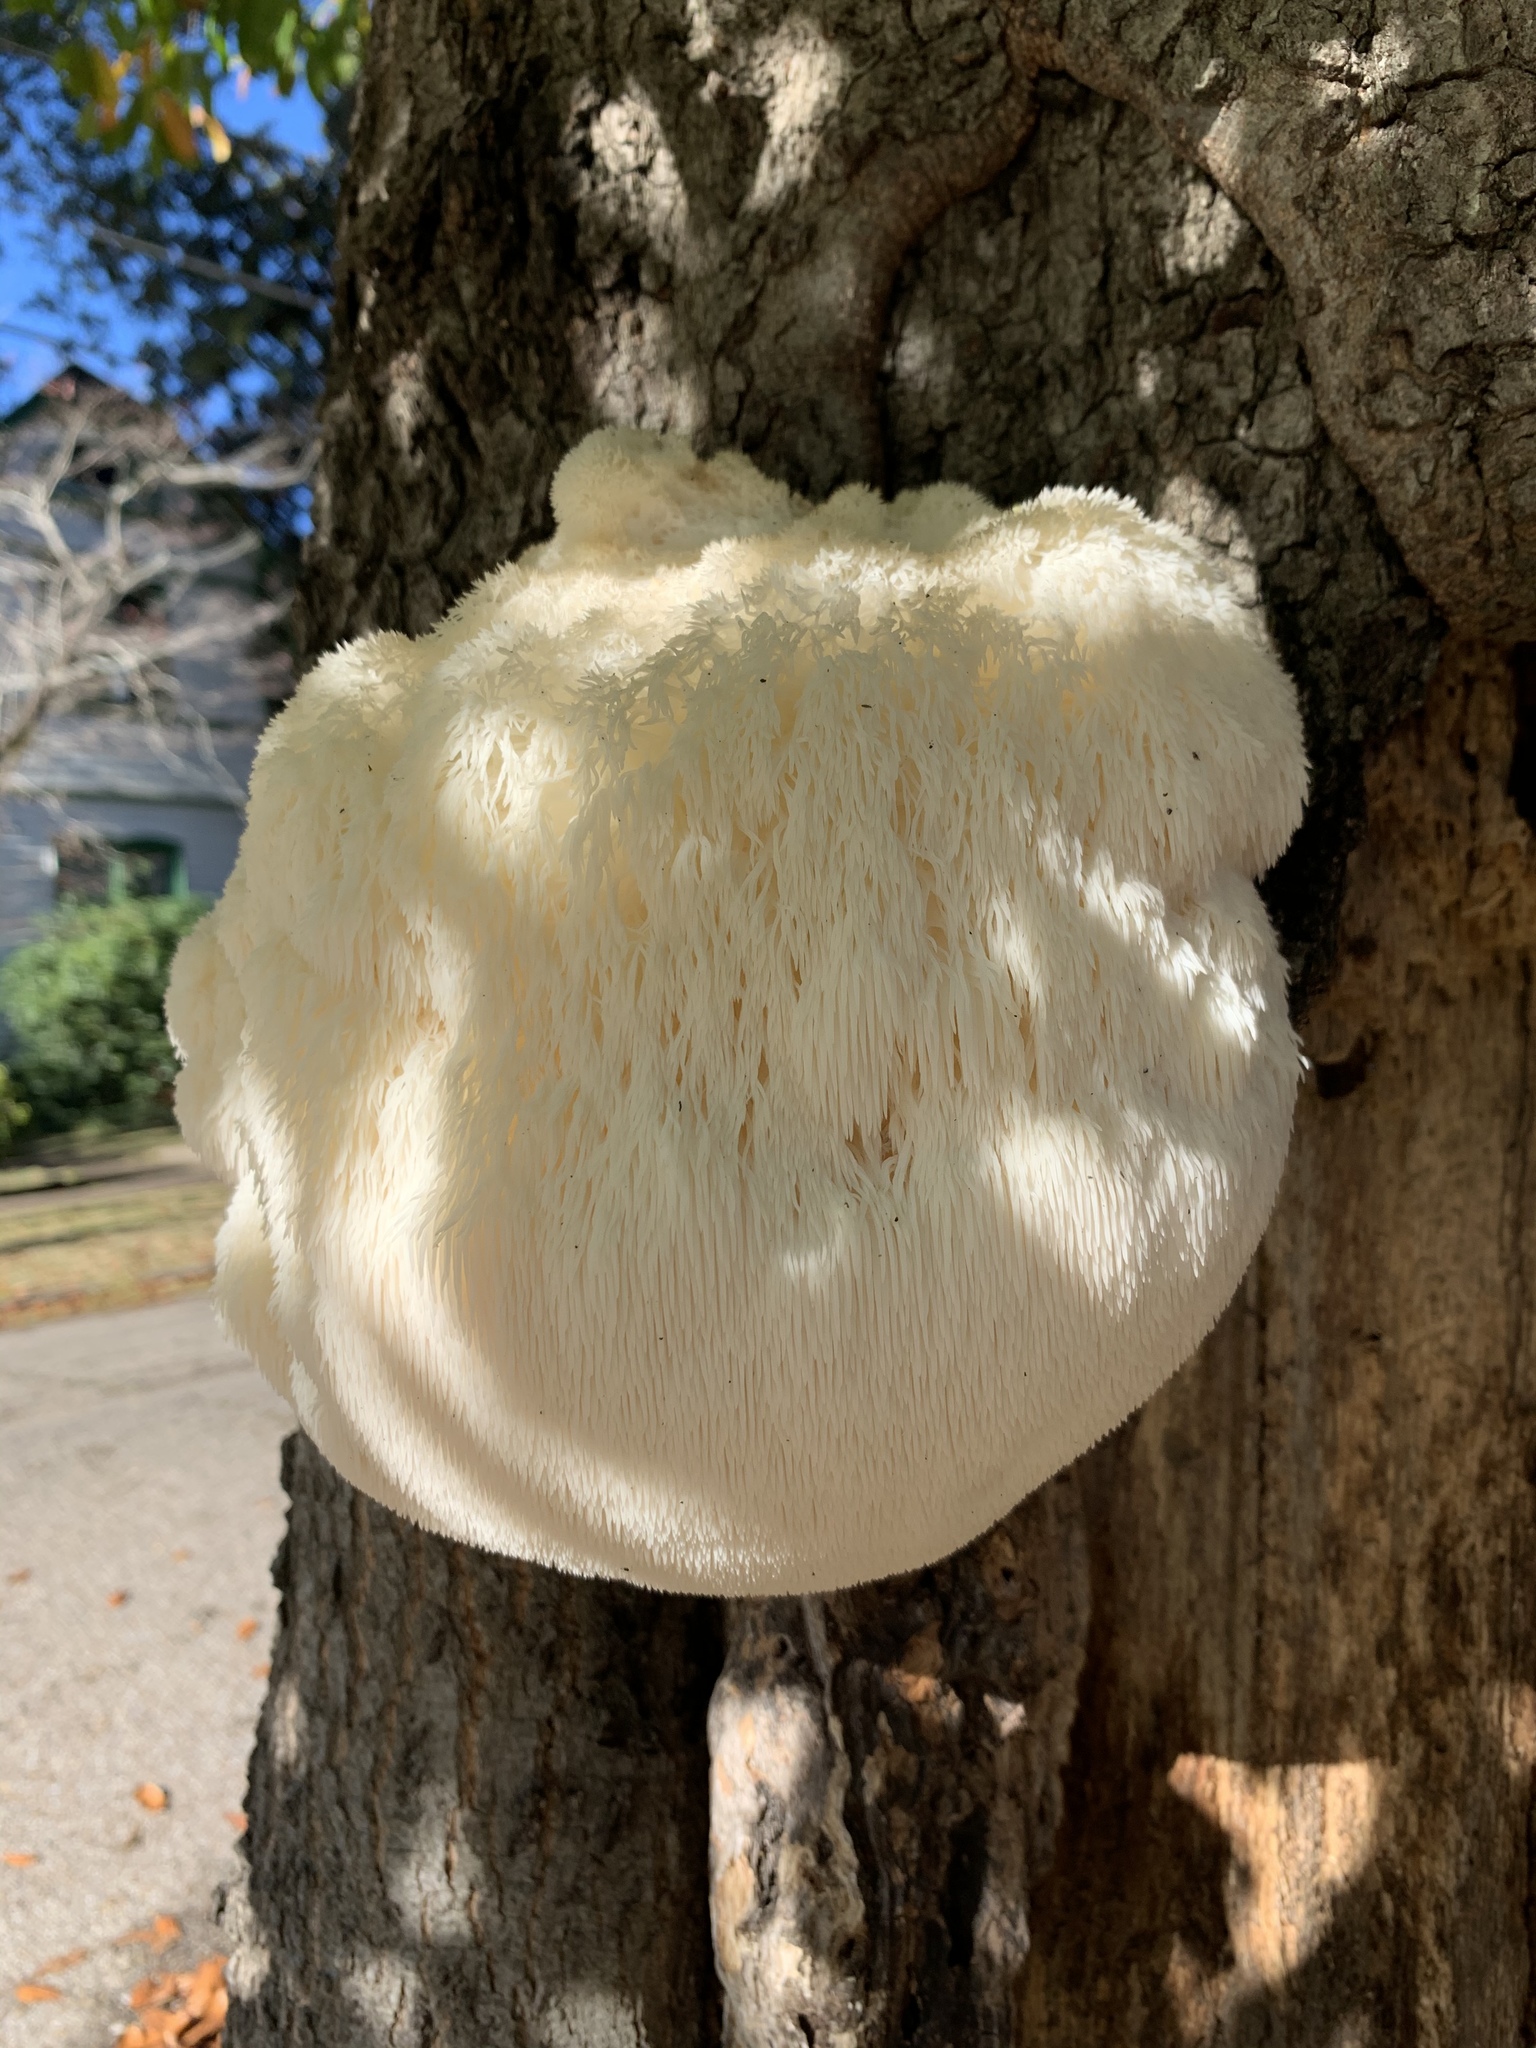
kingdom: Fungi
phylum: Basidiomycota
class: Agaricomycetes
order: Russulales
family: Hericiaceae
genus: Hericium
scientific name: Hericium erinaceus
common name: Bearded tooth
